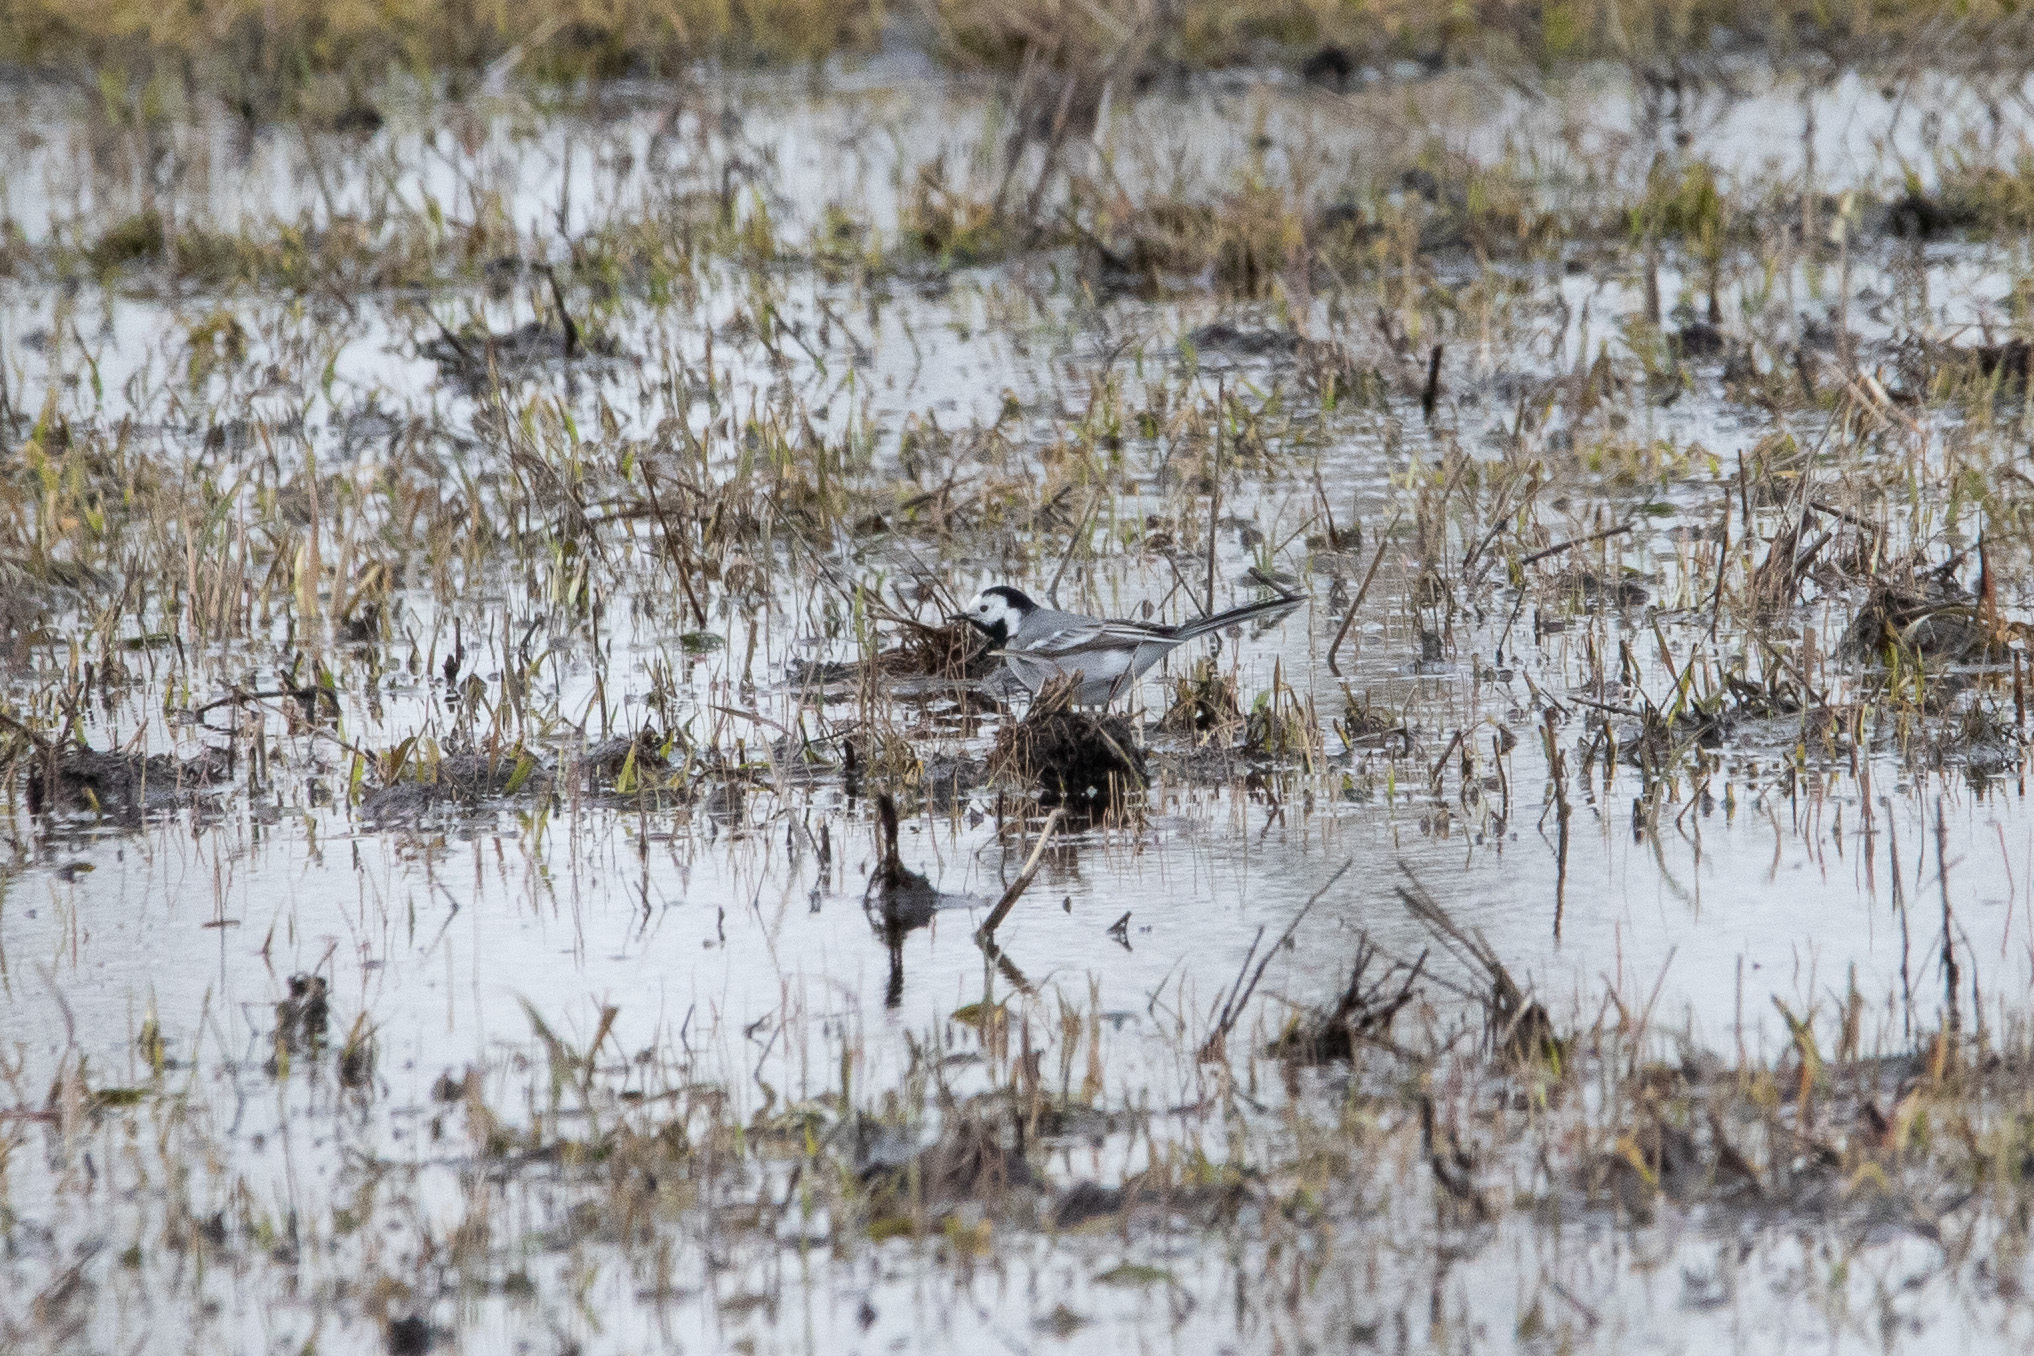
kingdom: Animalia
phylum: Chordata
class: Aves
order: Passeriformes
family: Motacillidae
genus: Motacilla
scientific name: Motacilla alba
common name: White wagtail
